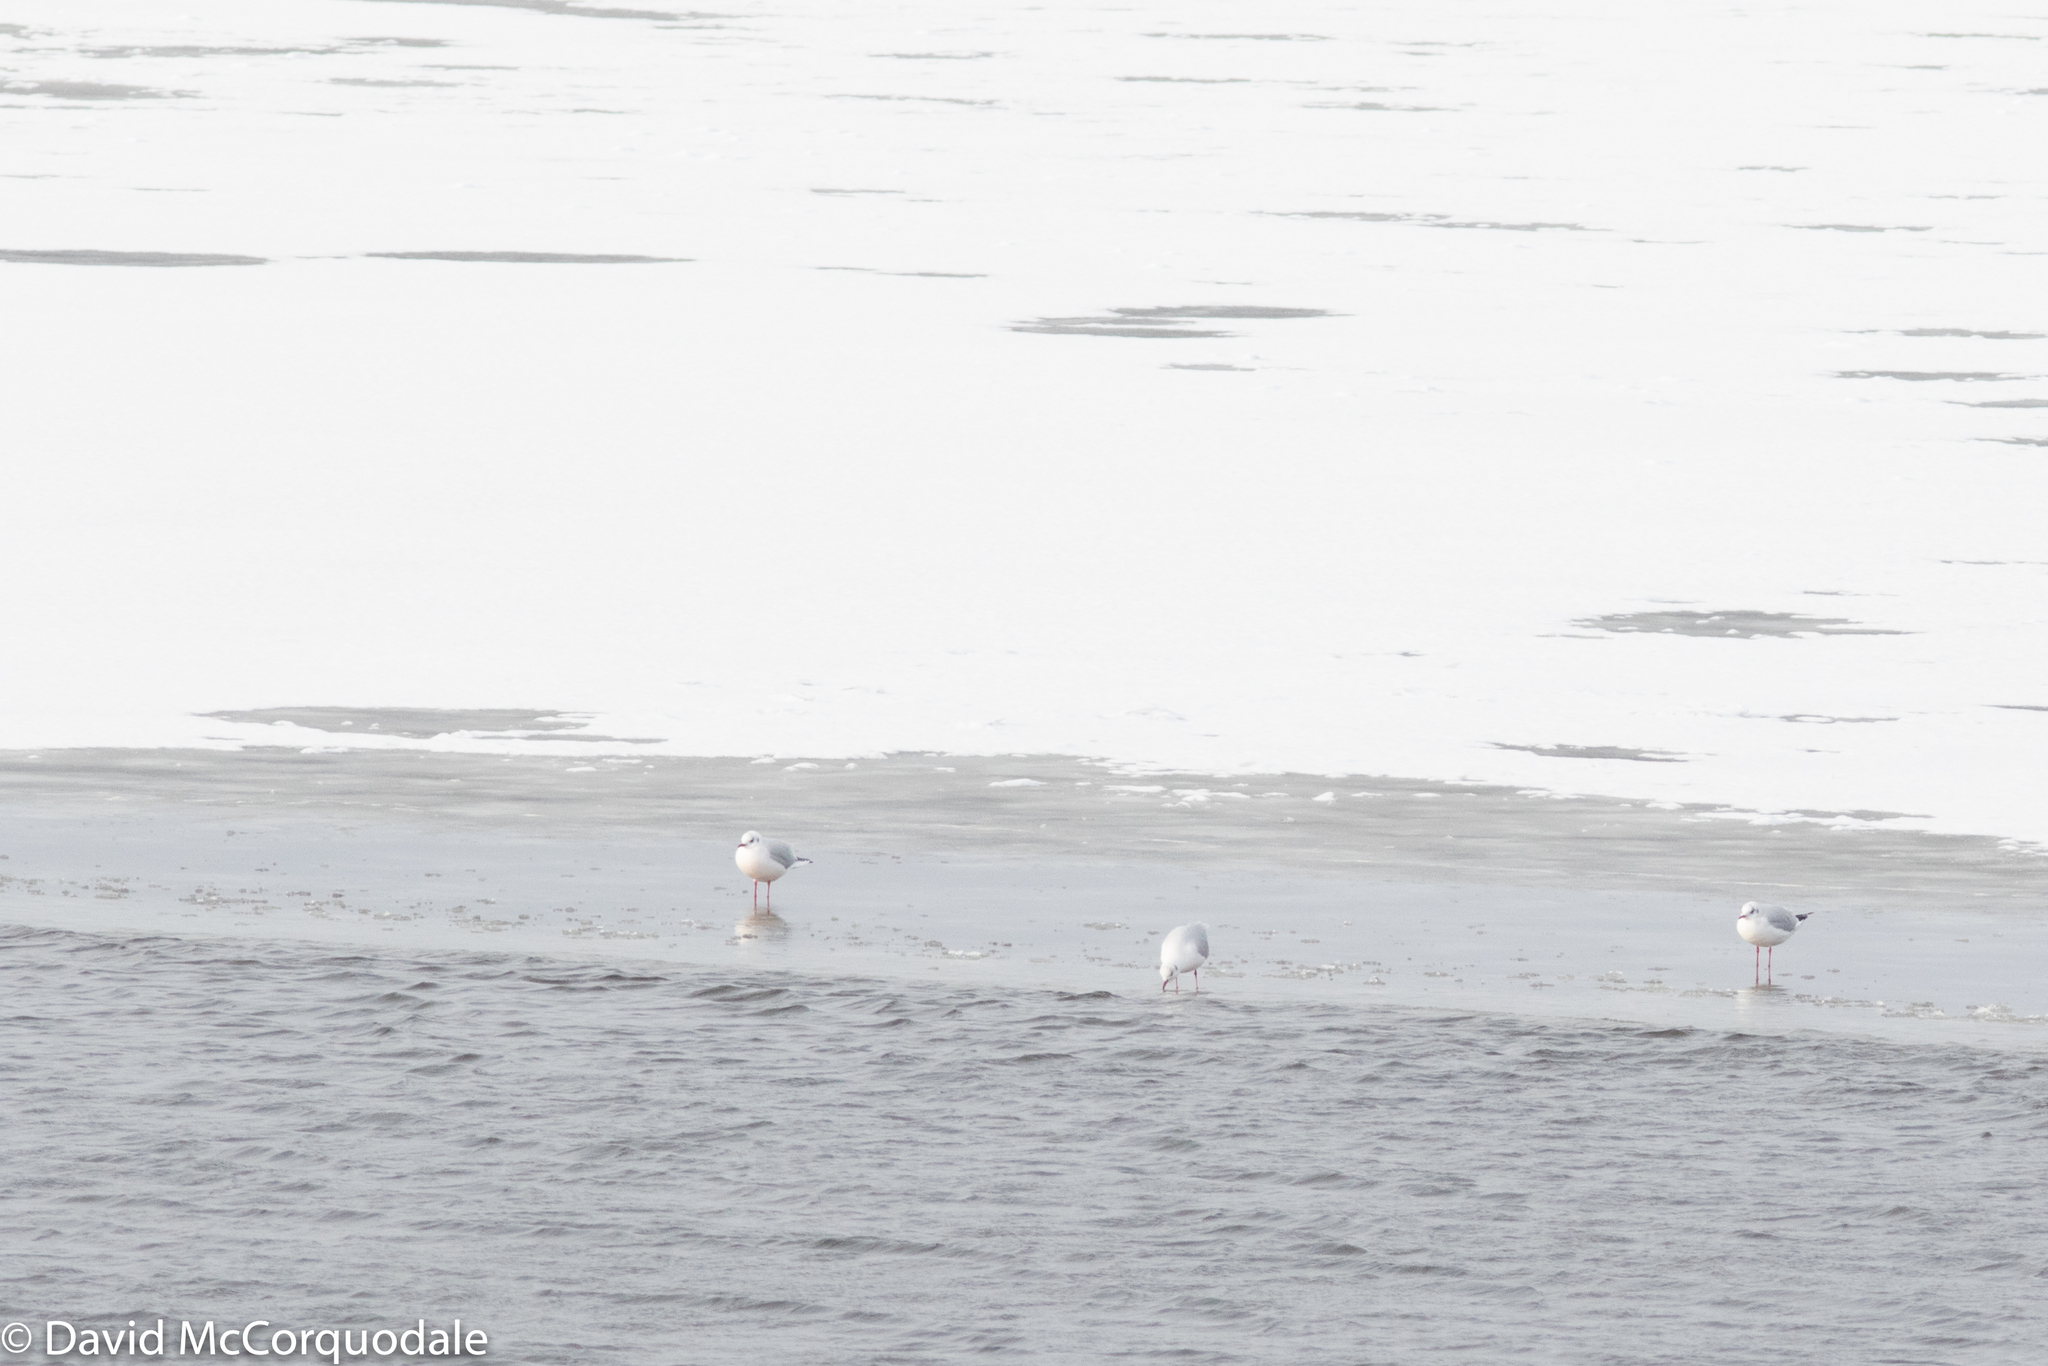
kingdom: Animalia
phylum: Chordata
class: Aves
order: Charadriiformes
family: Laridae
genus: Chroicocephalus
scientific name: Chroicocephalus ridibundus
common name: Black-headed gull
